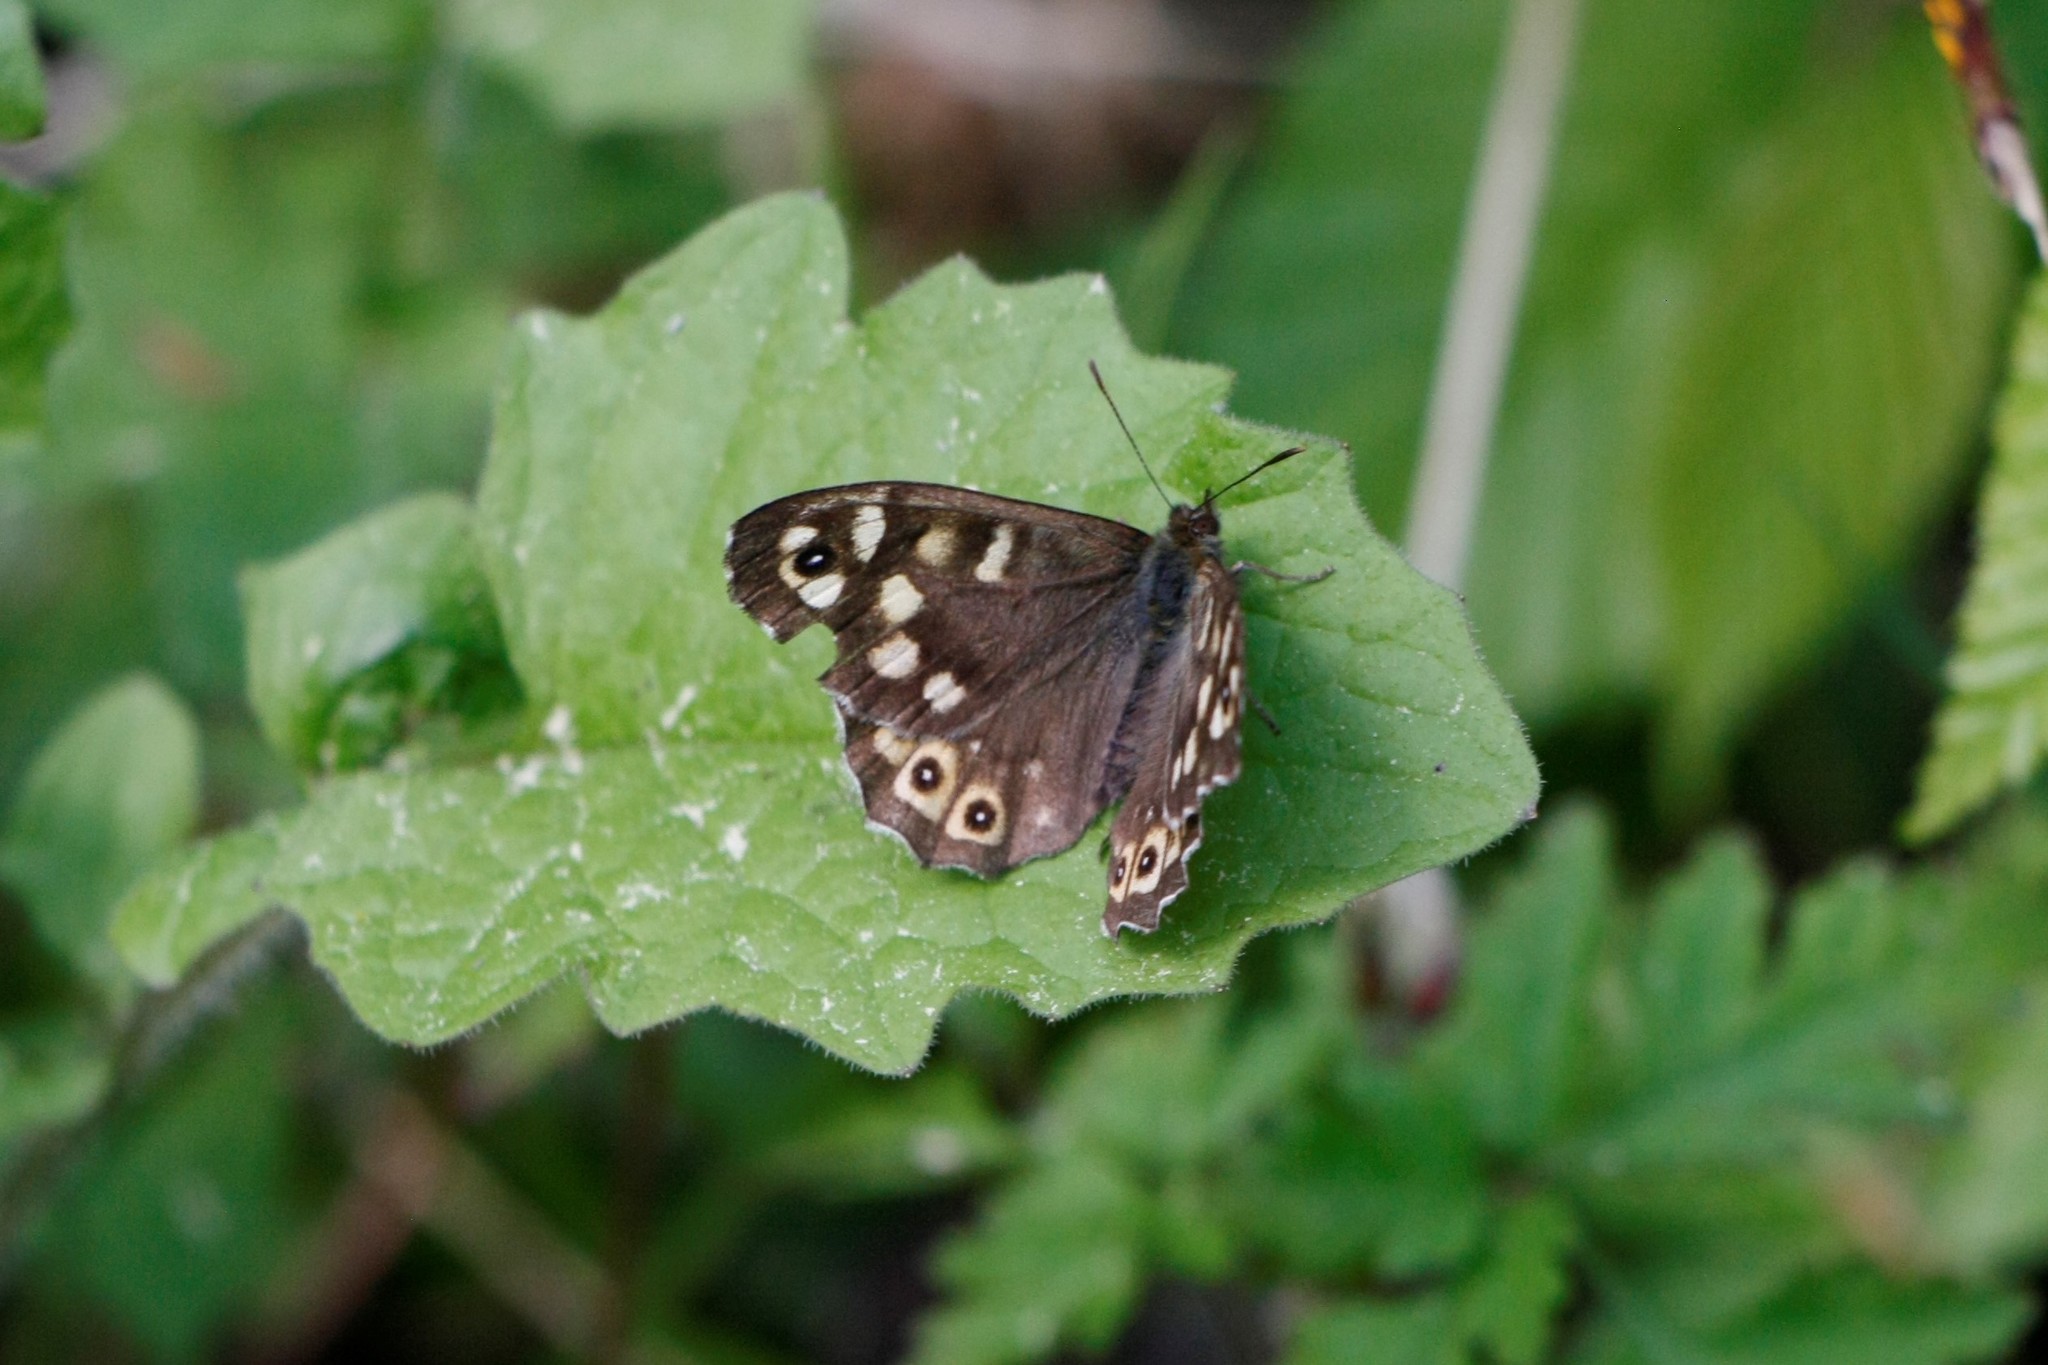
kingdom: Animalia
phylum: Arthropoda
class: Insecta
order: Lepidoptera
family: Nymphalidae
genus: Pararge
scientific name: Pararge aegeria
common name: Speckled wood
